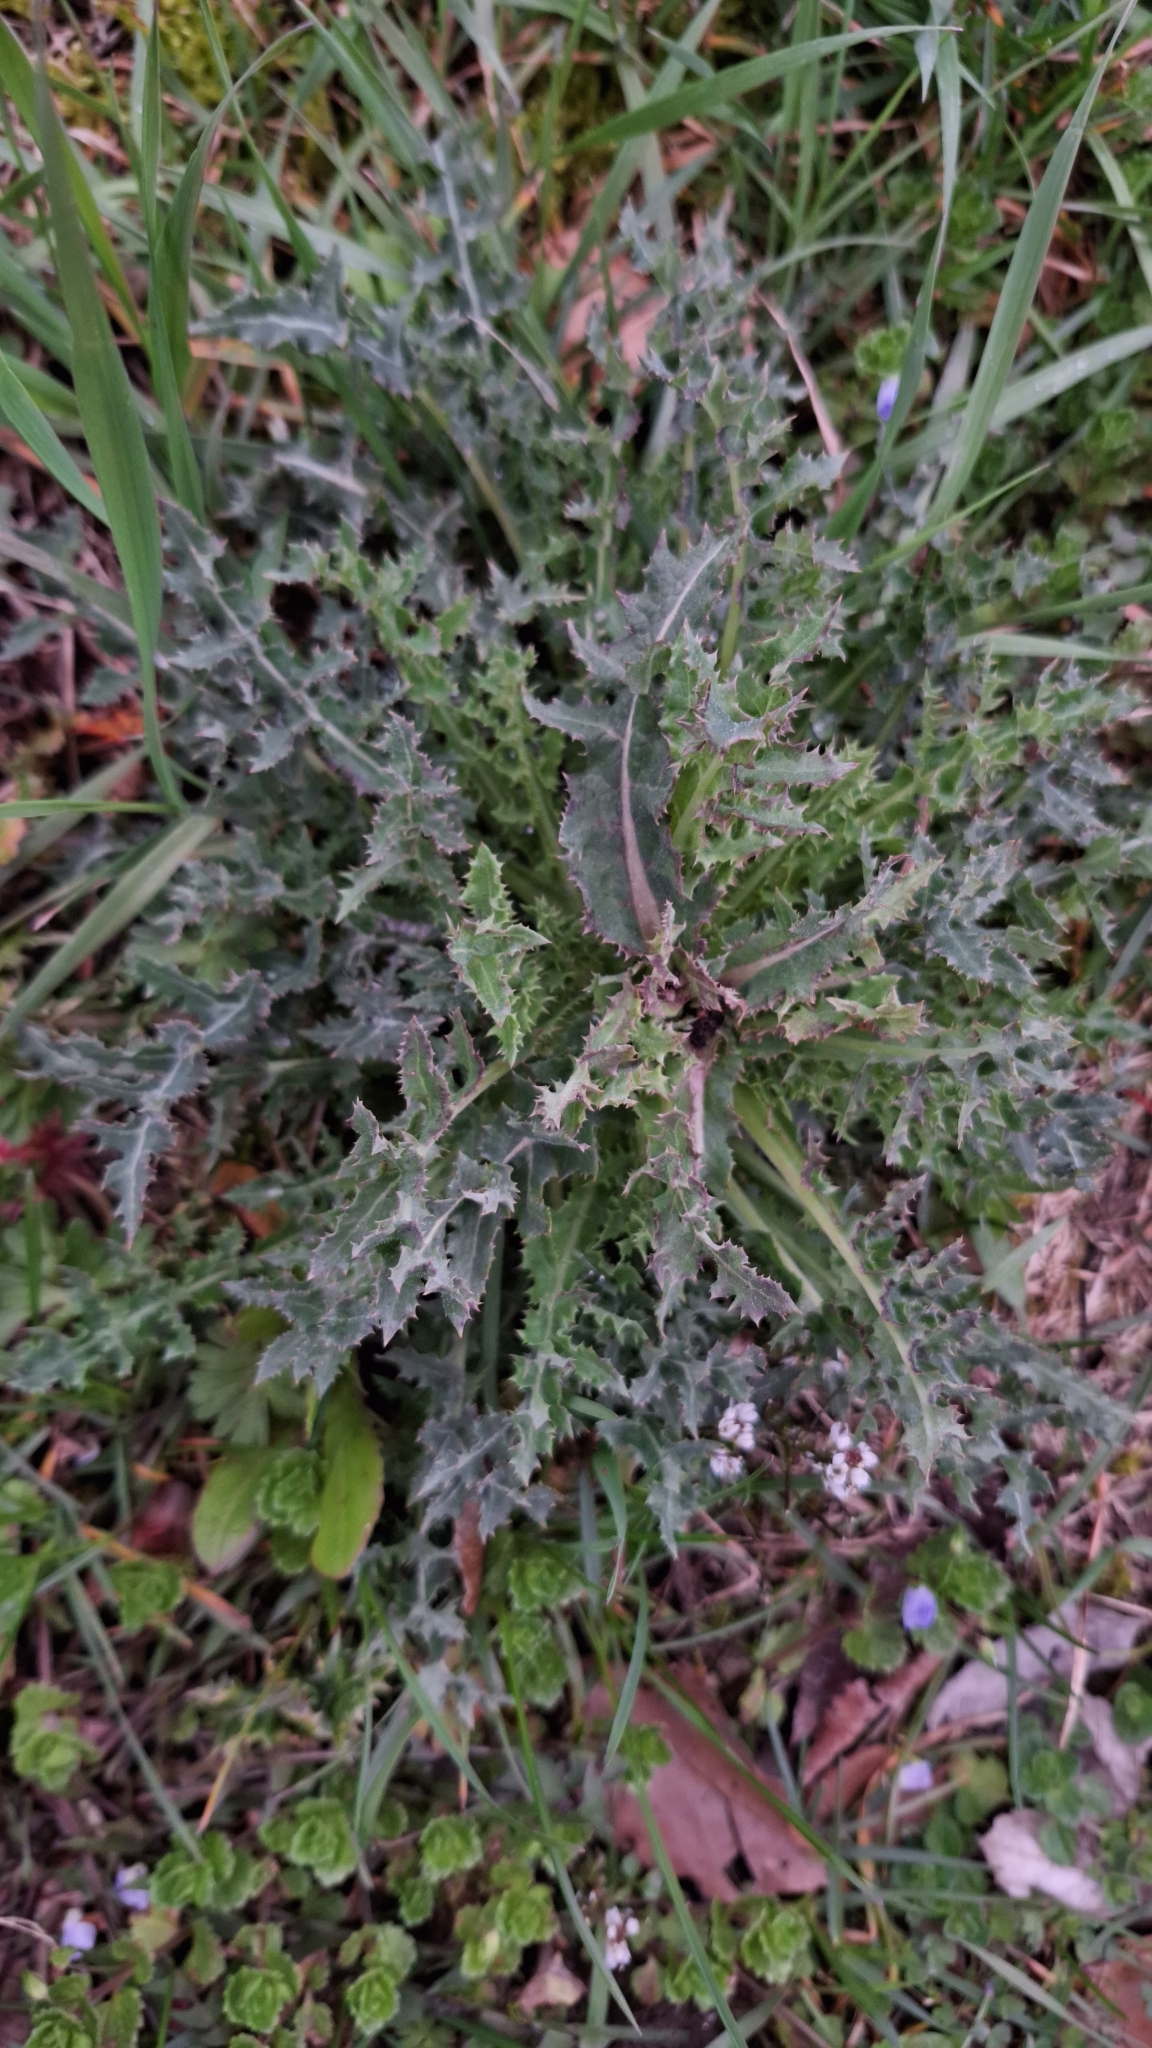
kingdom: Plantae
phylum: Tracheophyta
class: Magnoliopsida
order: Asterales
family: Asteraceae
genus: Sonchus
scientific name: Sonchus asper
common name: Prickly sow-thistle
